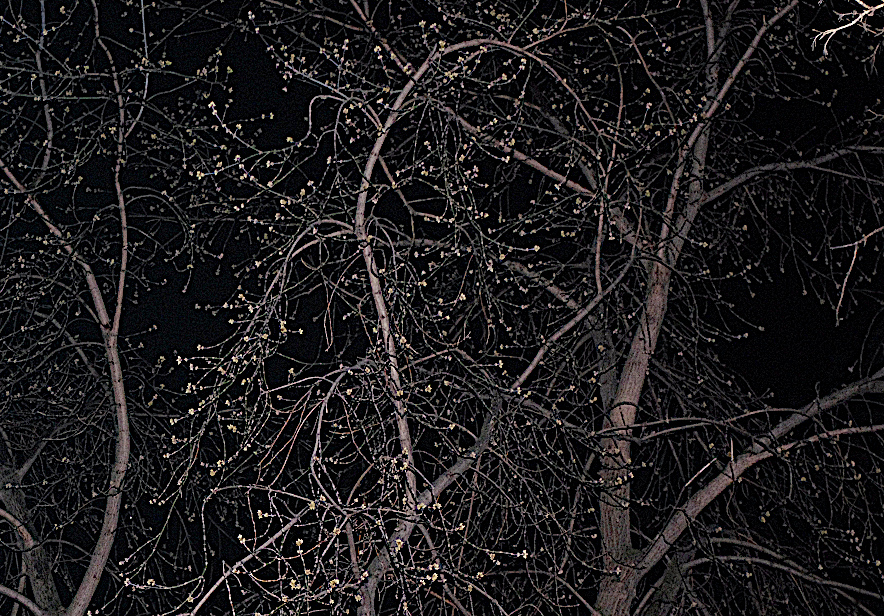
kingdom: Plantae
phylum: Tracheophyta
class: Magnoliopsida
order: Sapindales
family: Sapindaceae
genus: Acer
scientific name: Acer negundo
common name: Ashleaf maple
